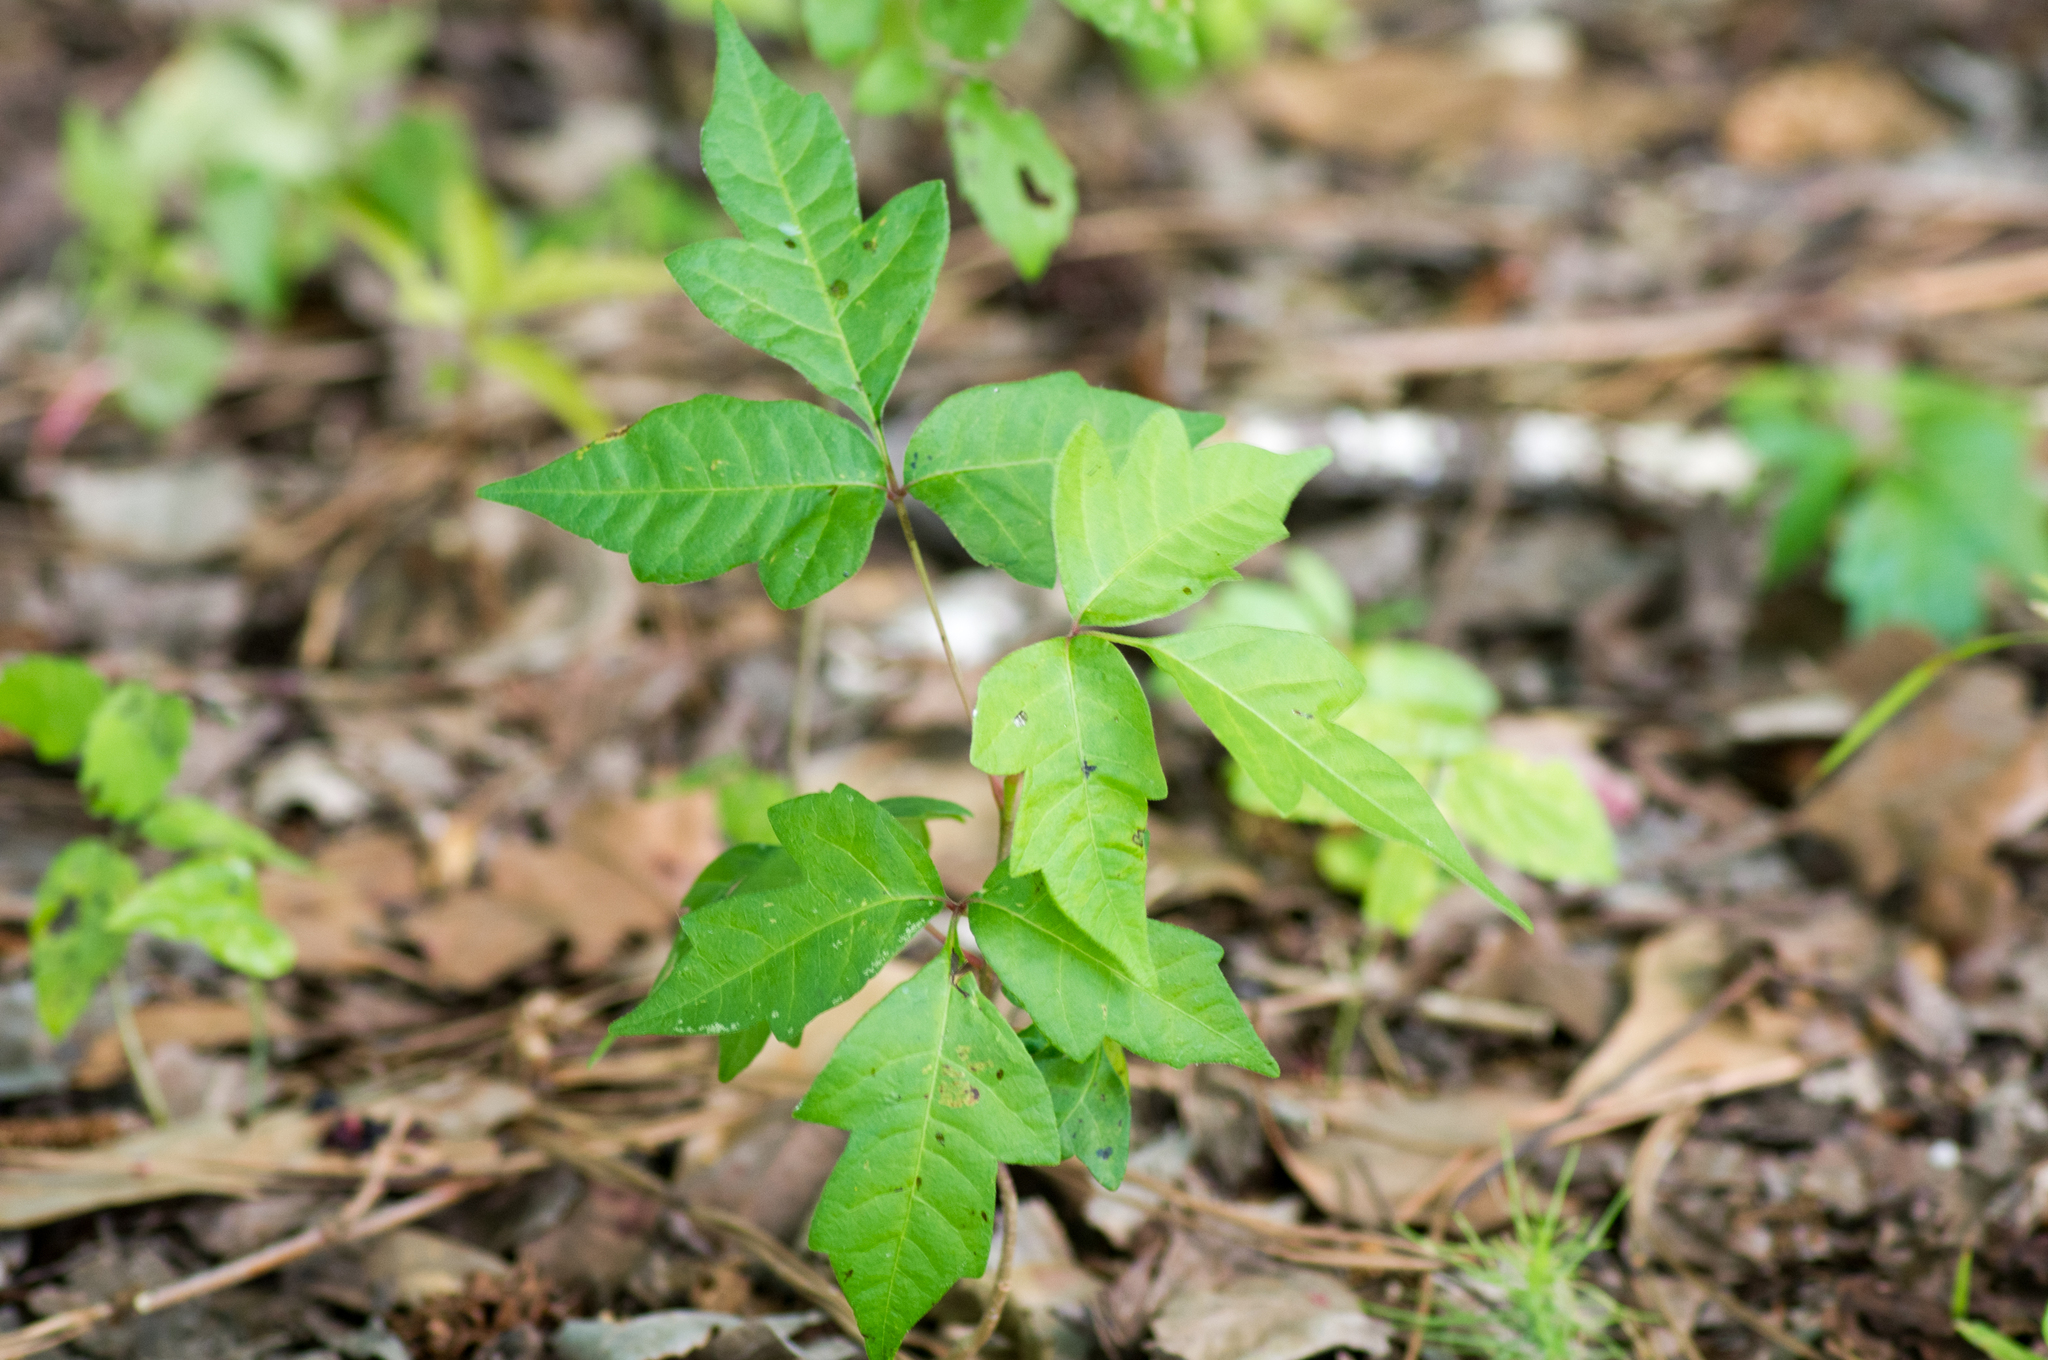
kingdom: Plantae
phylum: Tracheophyta
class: Magnoliopsida
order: Sapindales
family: Anacardiaceae
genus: Toxicodendron
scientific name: Toxicodendron radicans
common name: Poison ivy
